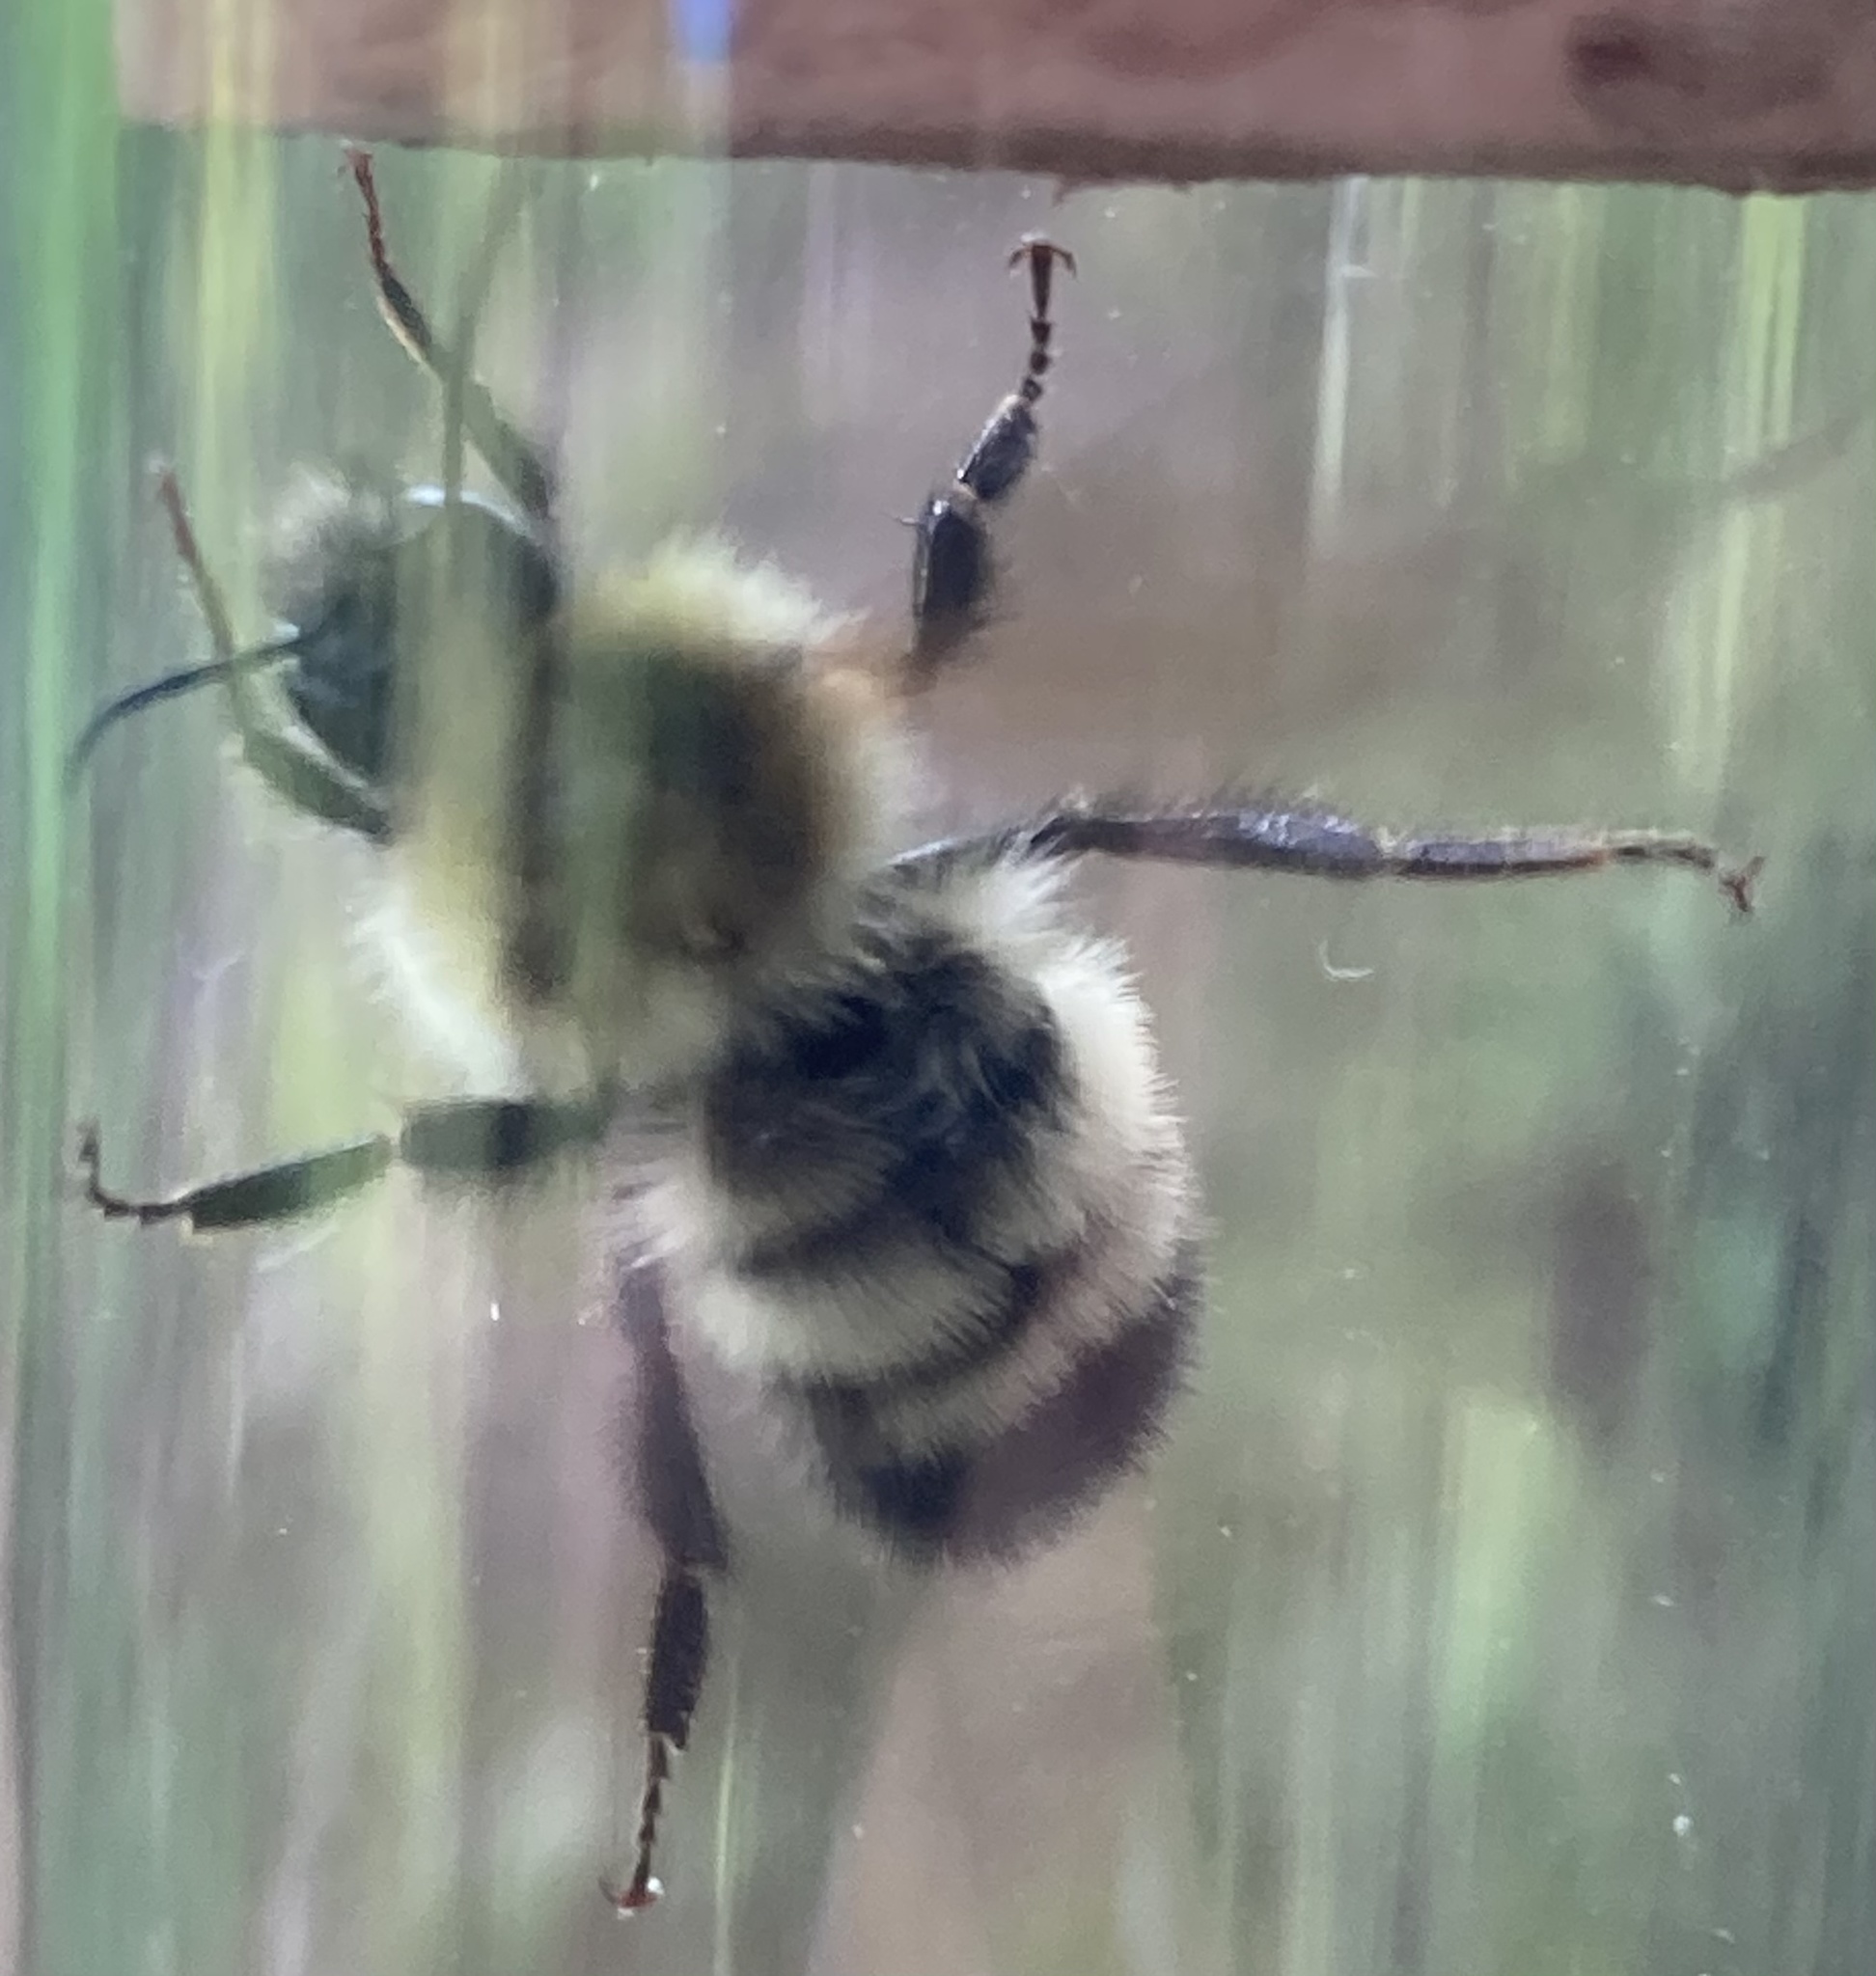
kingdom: Animalia
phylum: Arthropoda
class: Insecta
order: Hymenoptera
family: Apidae
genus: Bombus
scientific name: Bombus perplexus
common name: Confusing bumble bee
